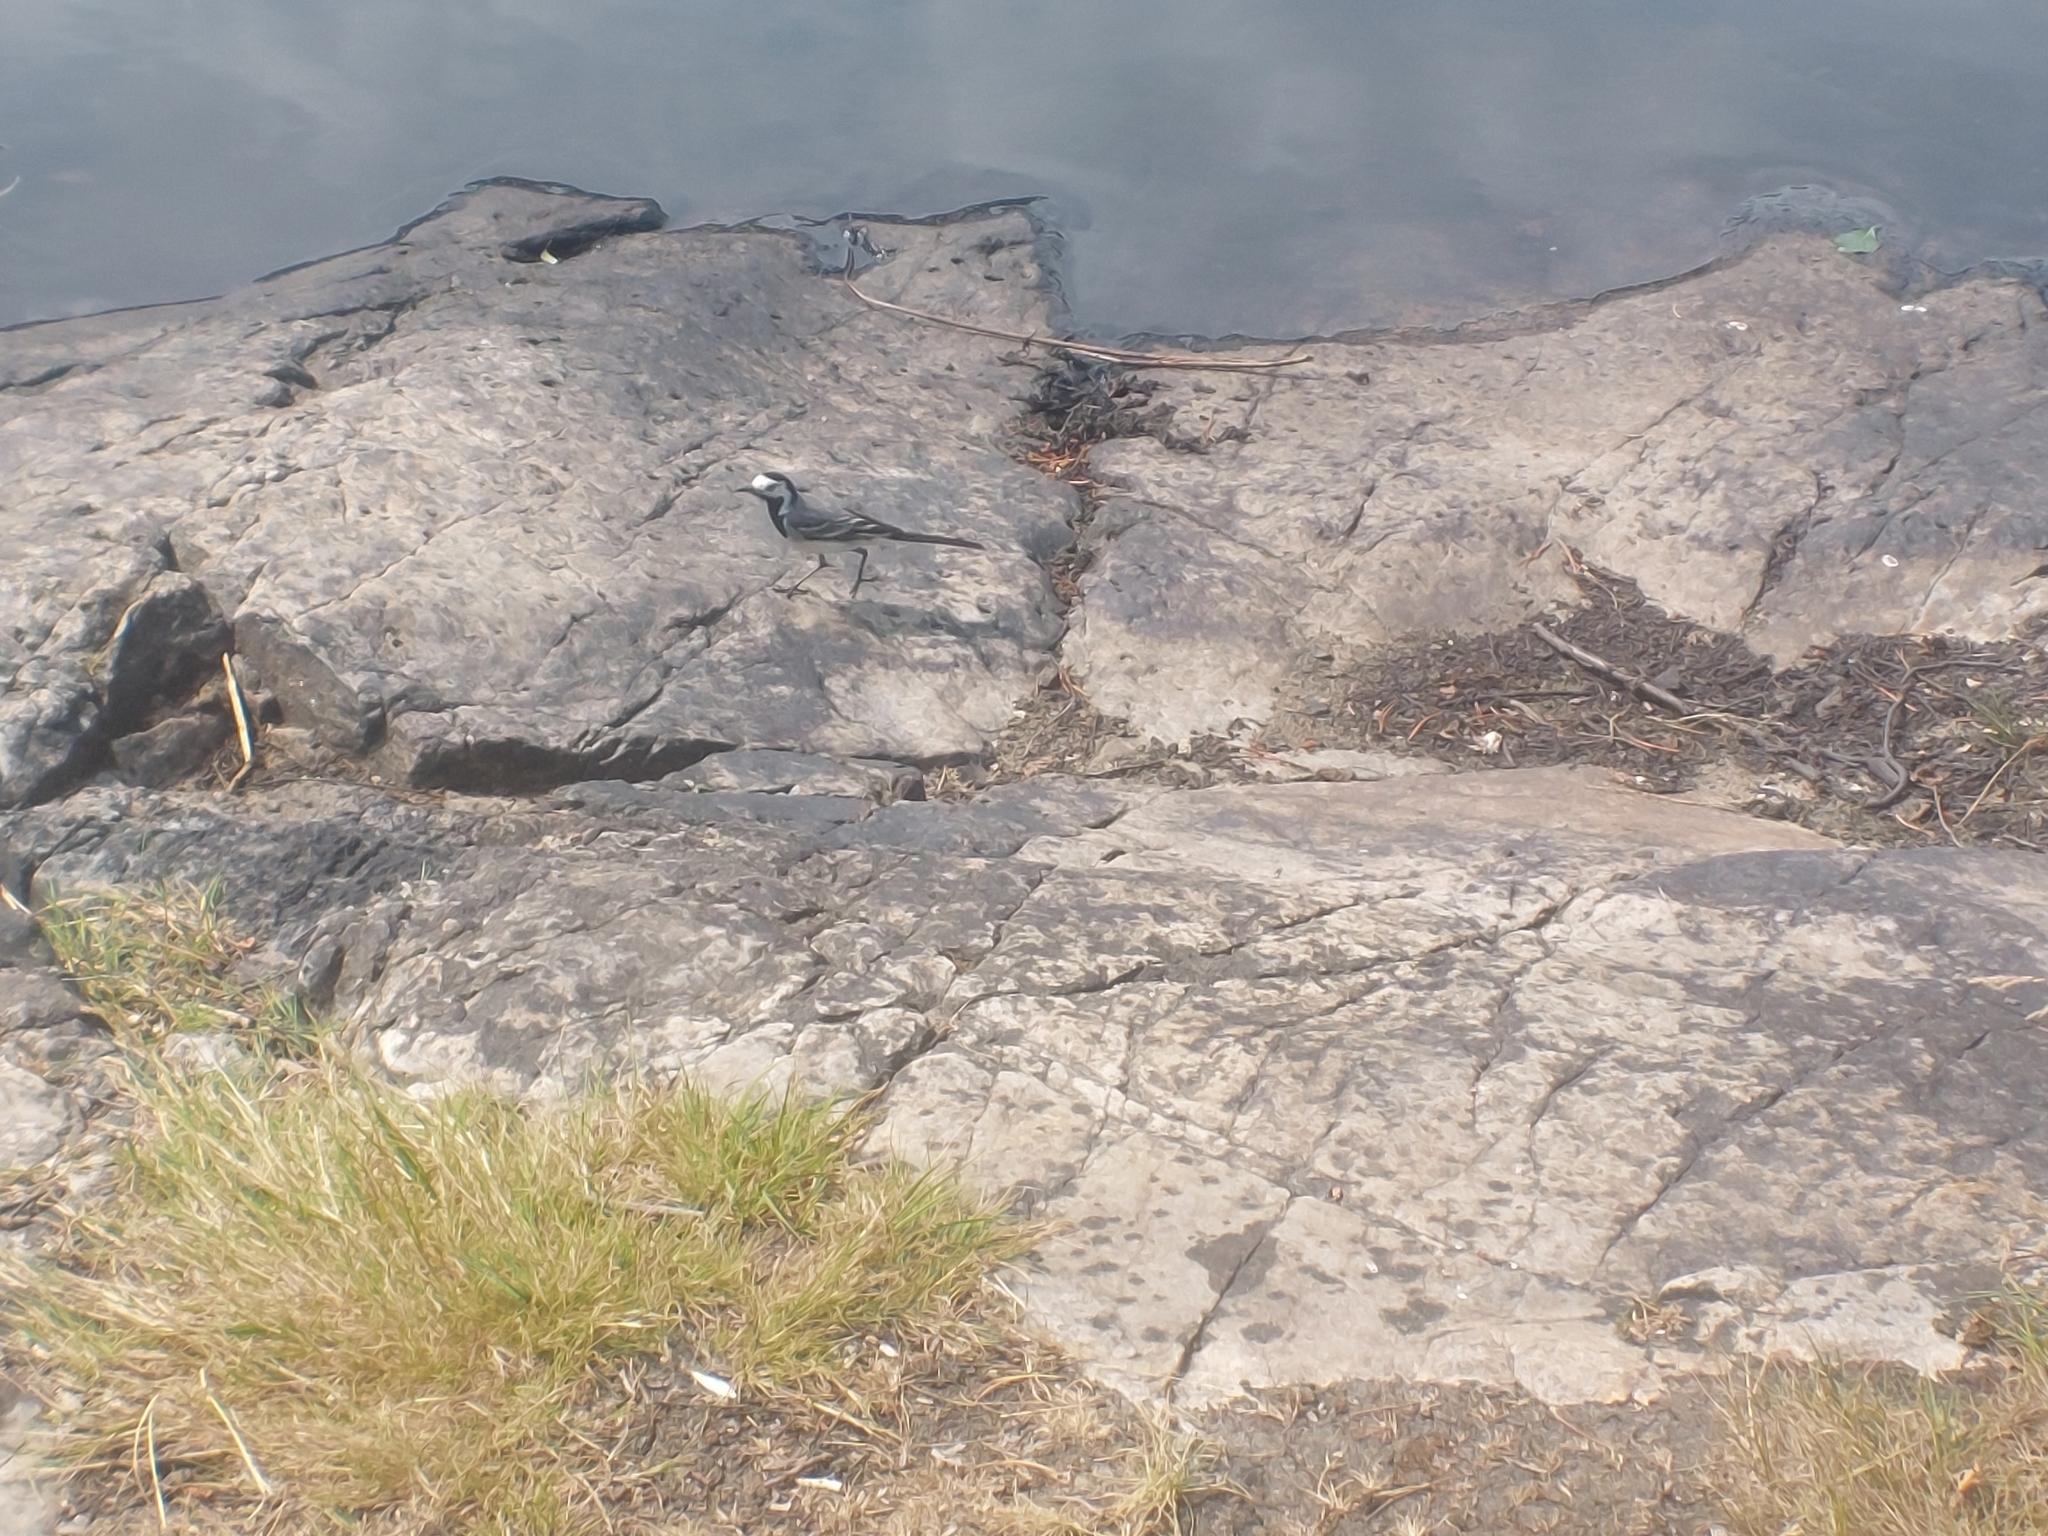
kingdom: Animalia
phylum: Chordata
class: Aves
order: Passeriformes
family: Motacillidae
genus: Motacilla
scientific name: Motacilla alba
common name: White wagtail
